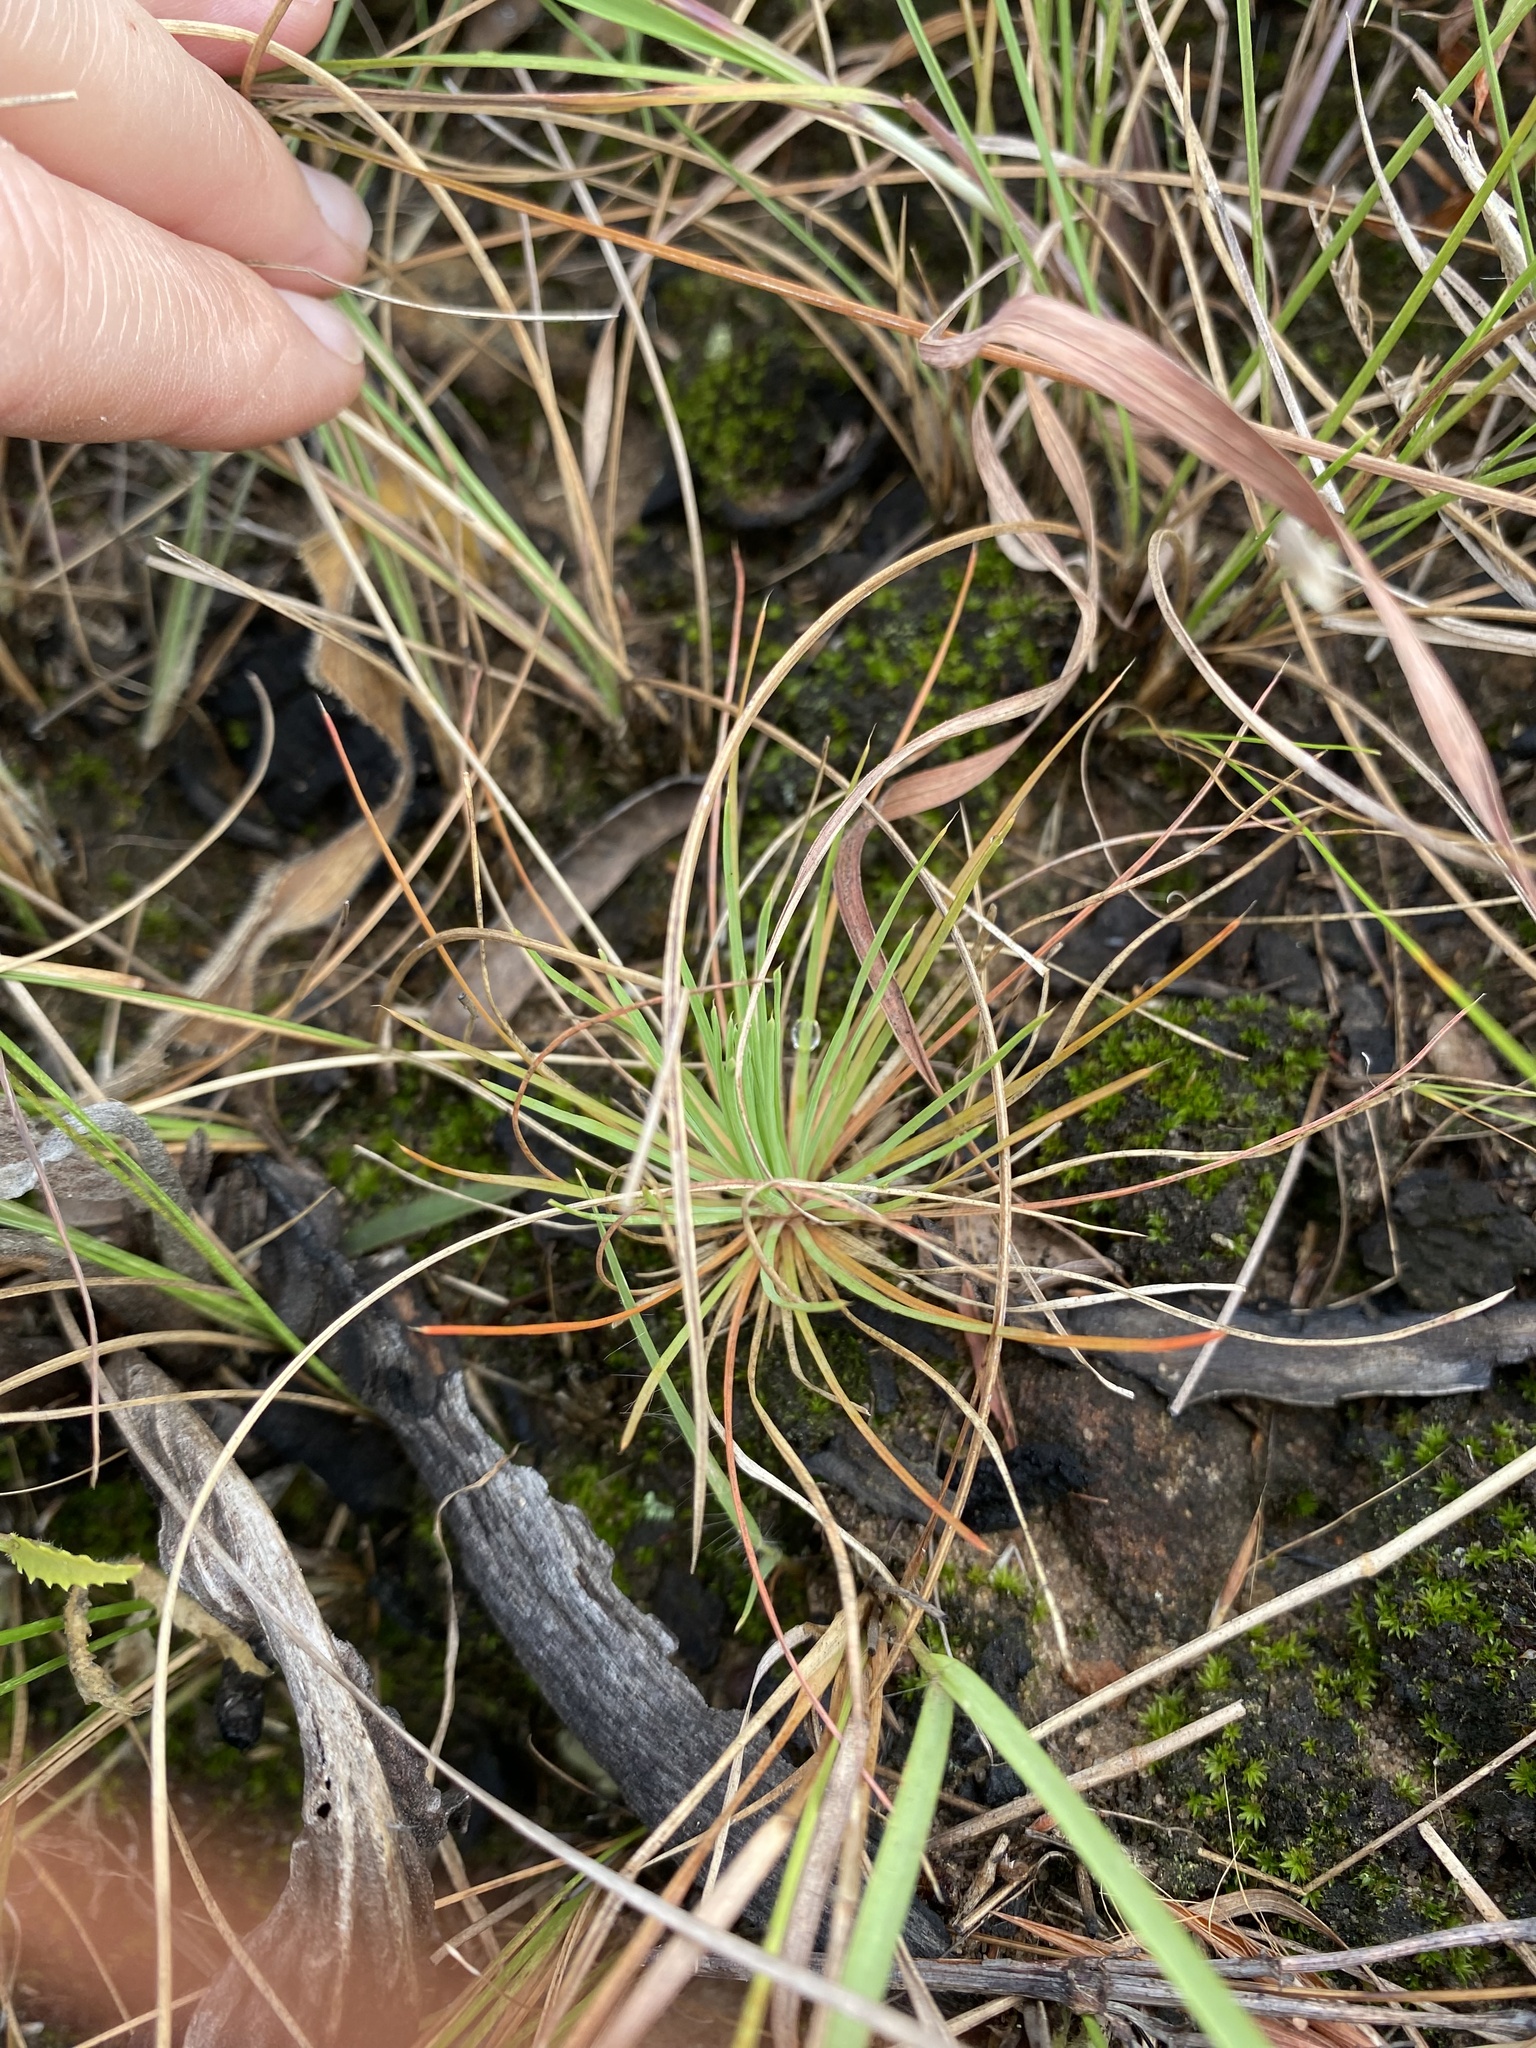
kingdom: Plantae
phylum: Tracheophyta
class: Magnoliopsida
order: Caryophyllales
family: Molluginaceae
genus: Psammotropha
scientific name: Psammotropha myriantha
